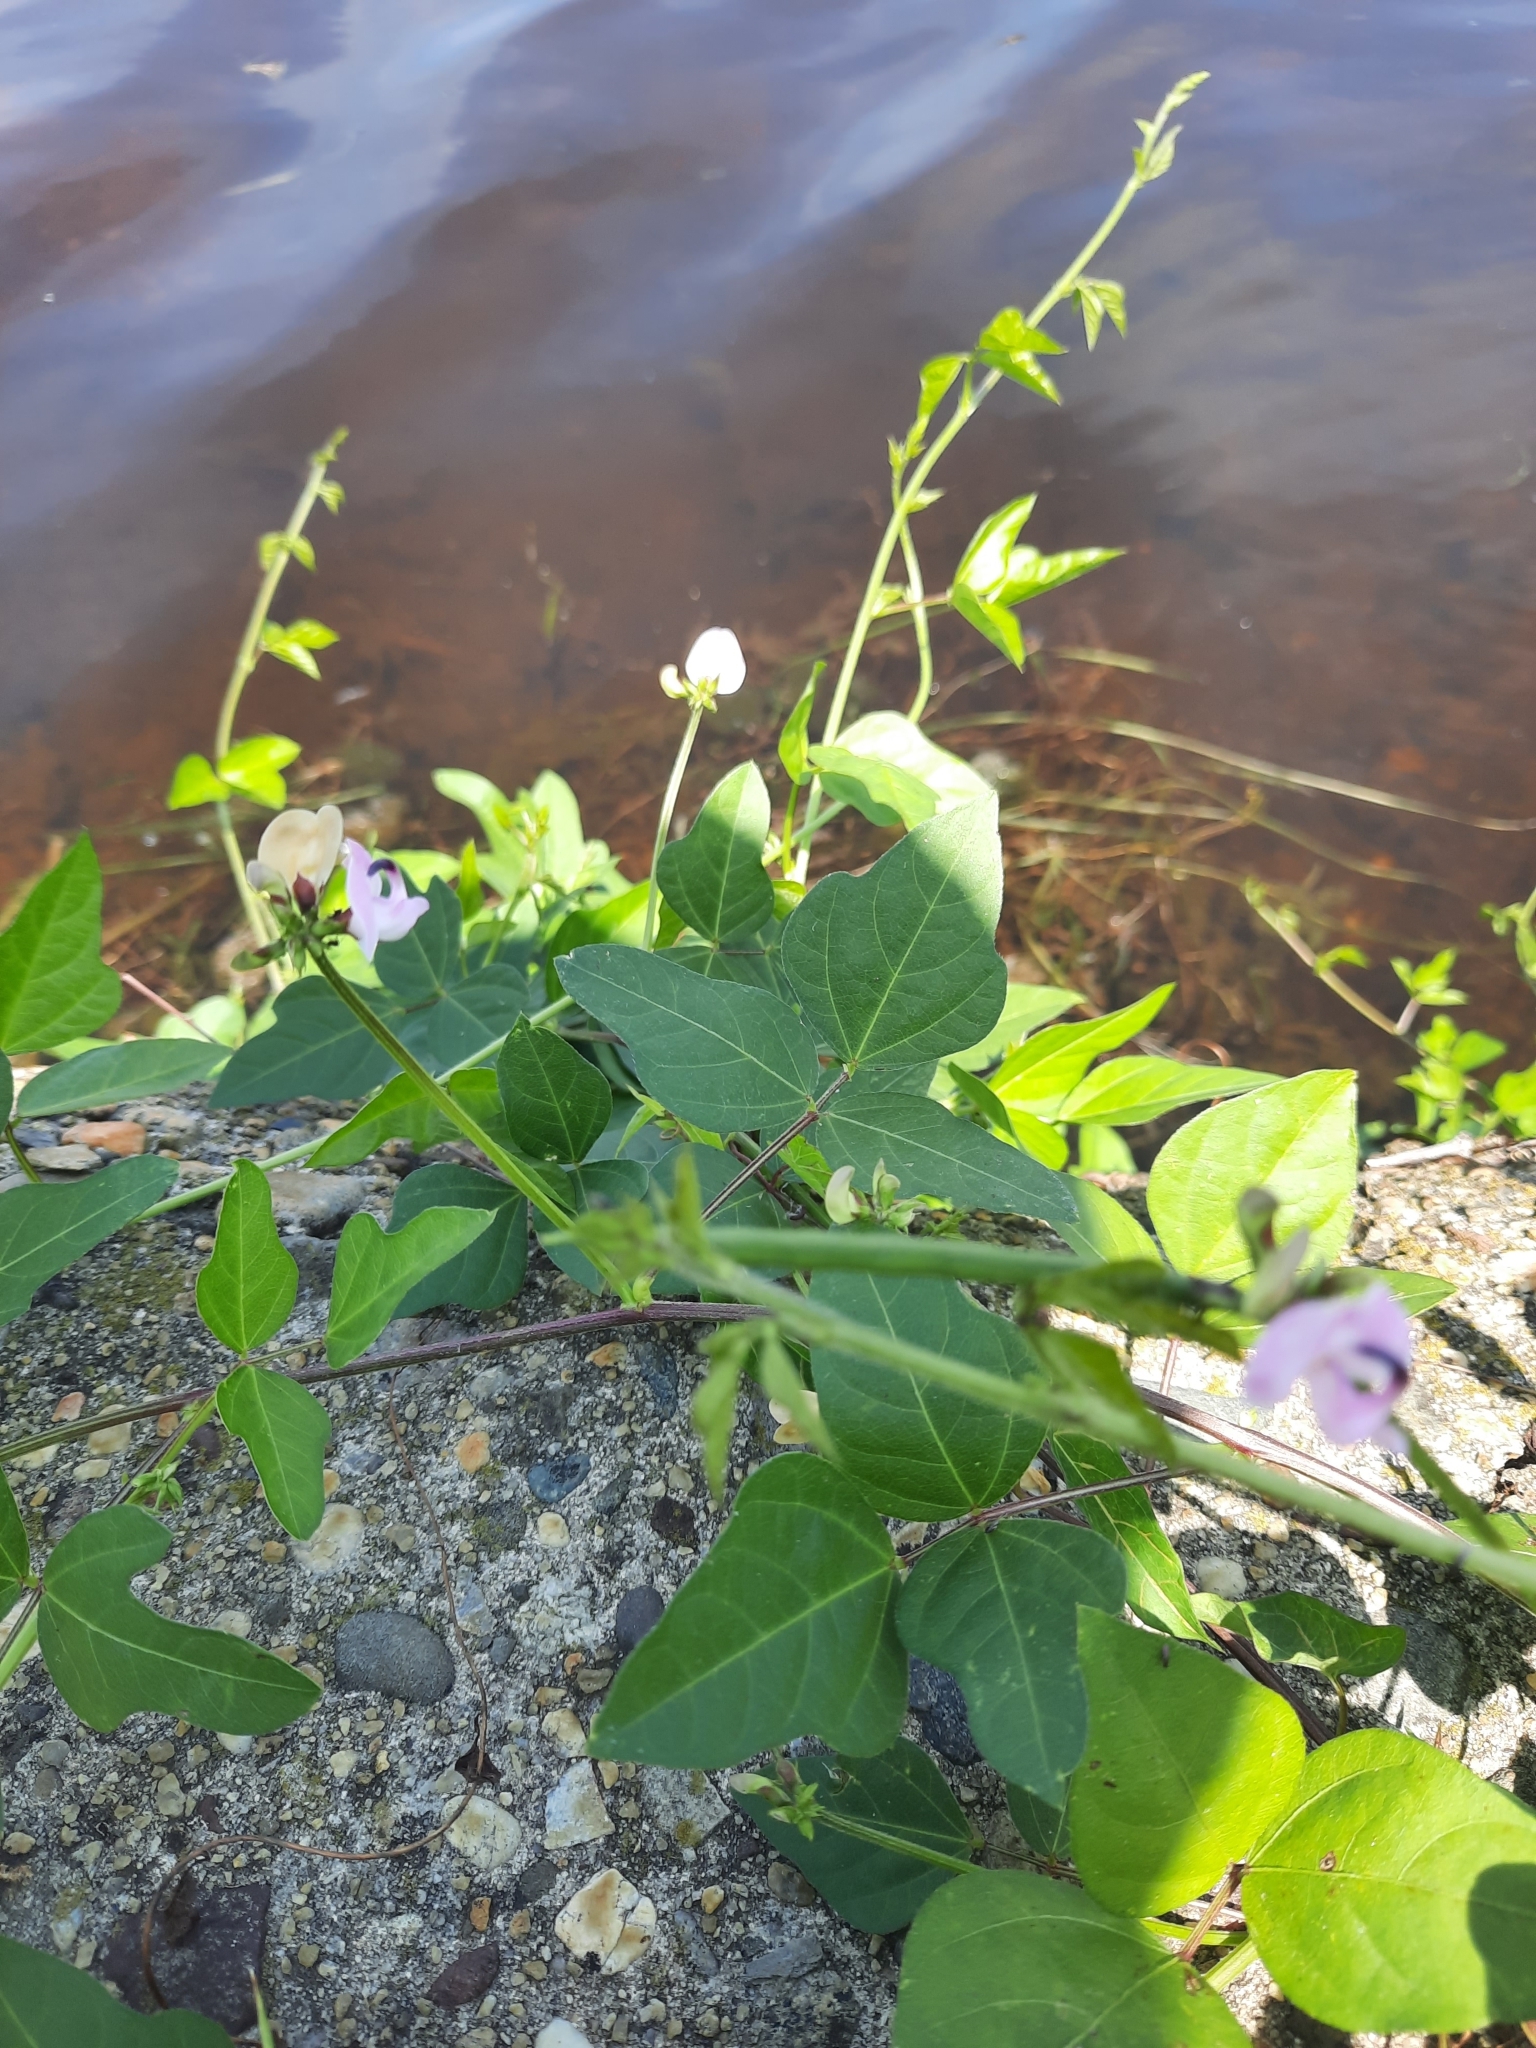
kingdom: Plantae
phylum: Tracheophyta
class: Magnoliopsida
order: Fabales
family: Fabaceae
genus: Strophostyles
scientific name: Strophostyles helvola
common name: Trailing wild bean
